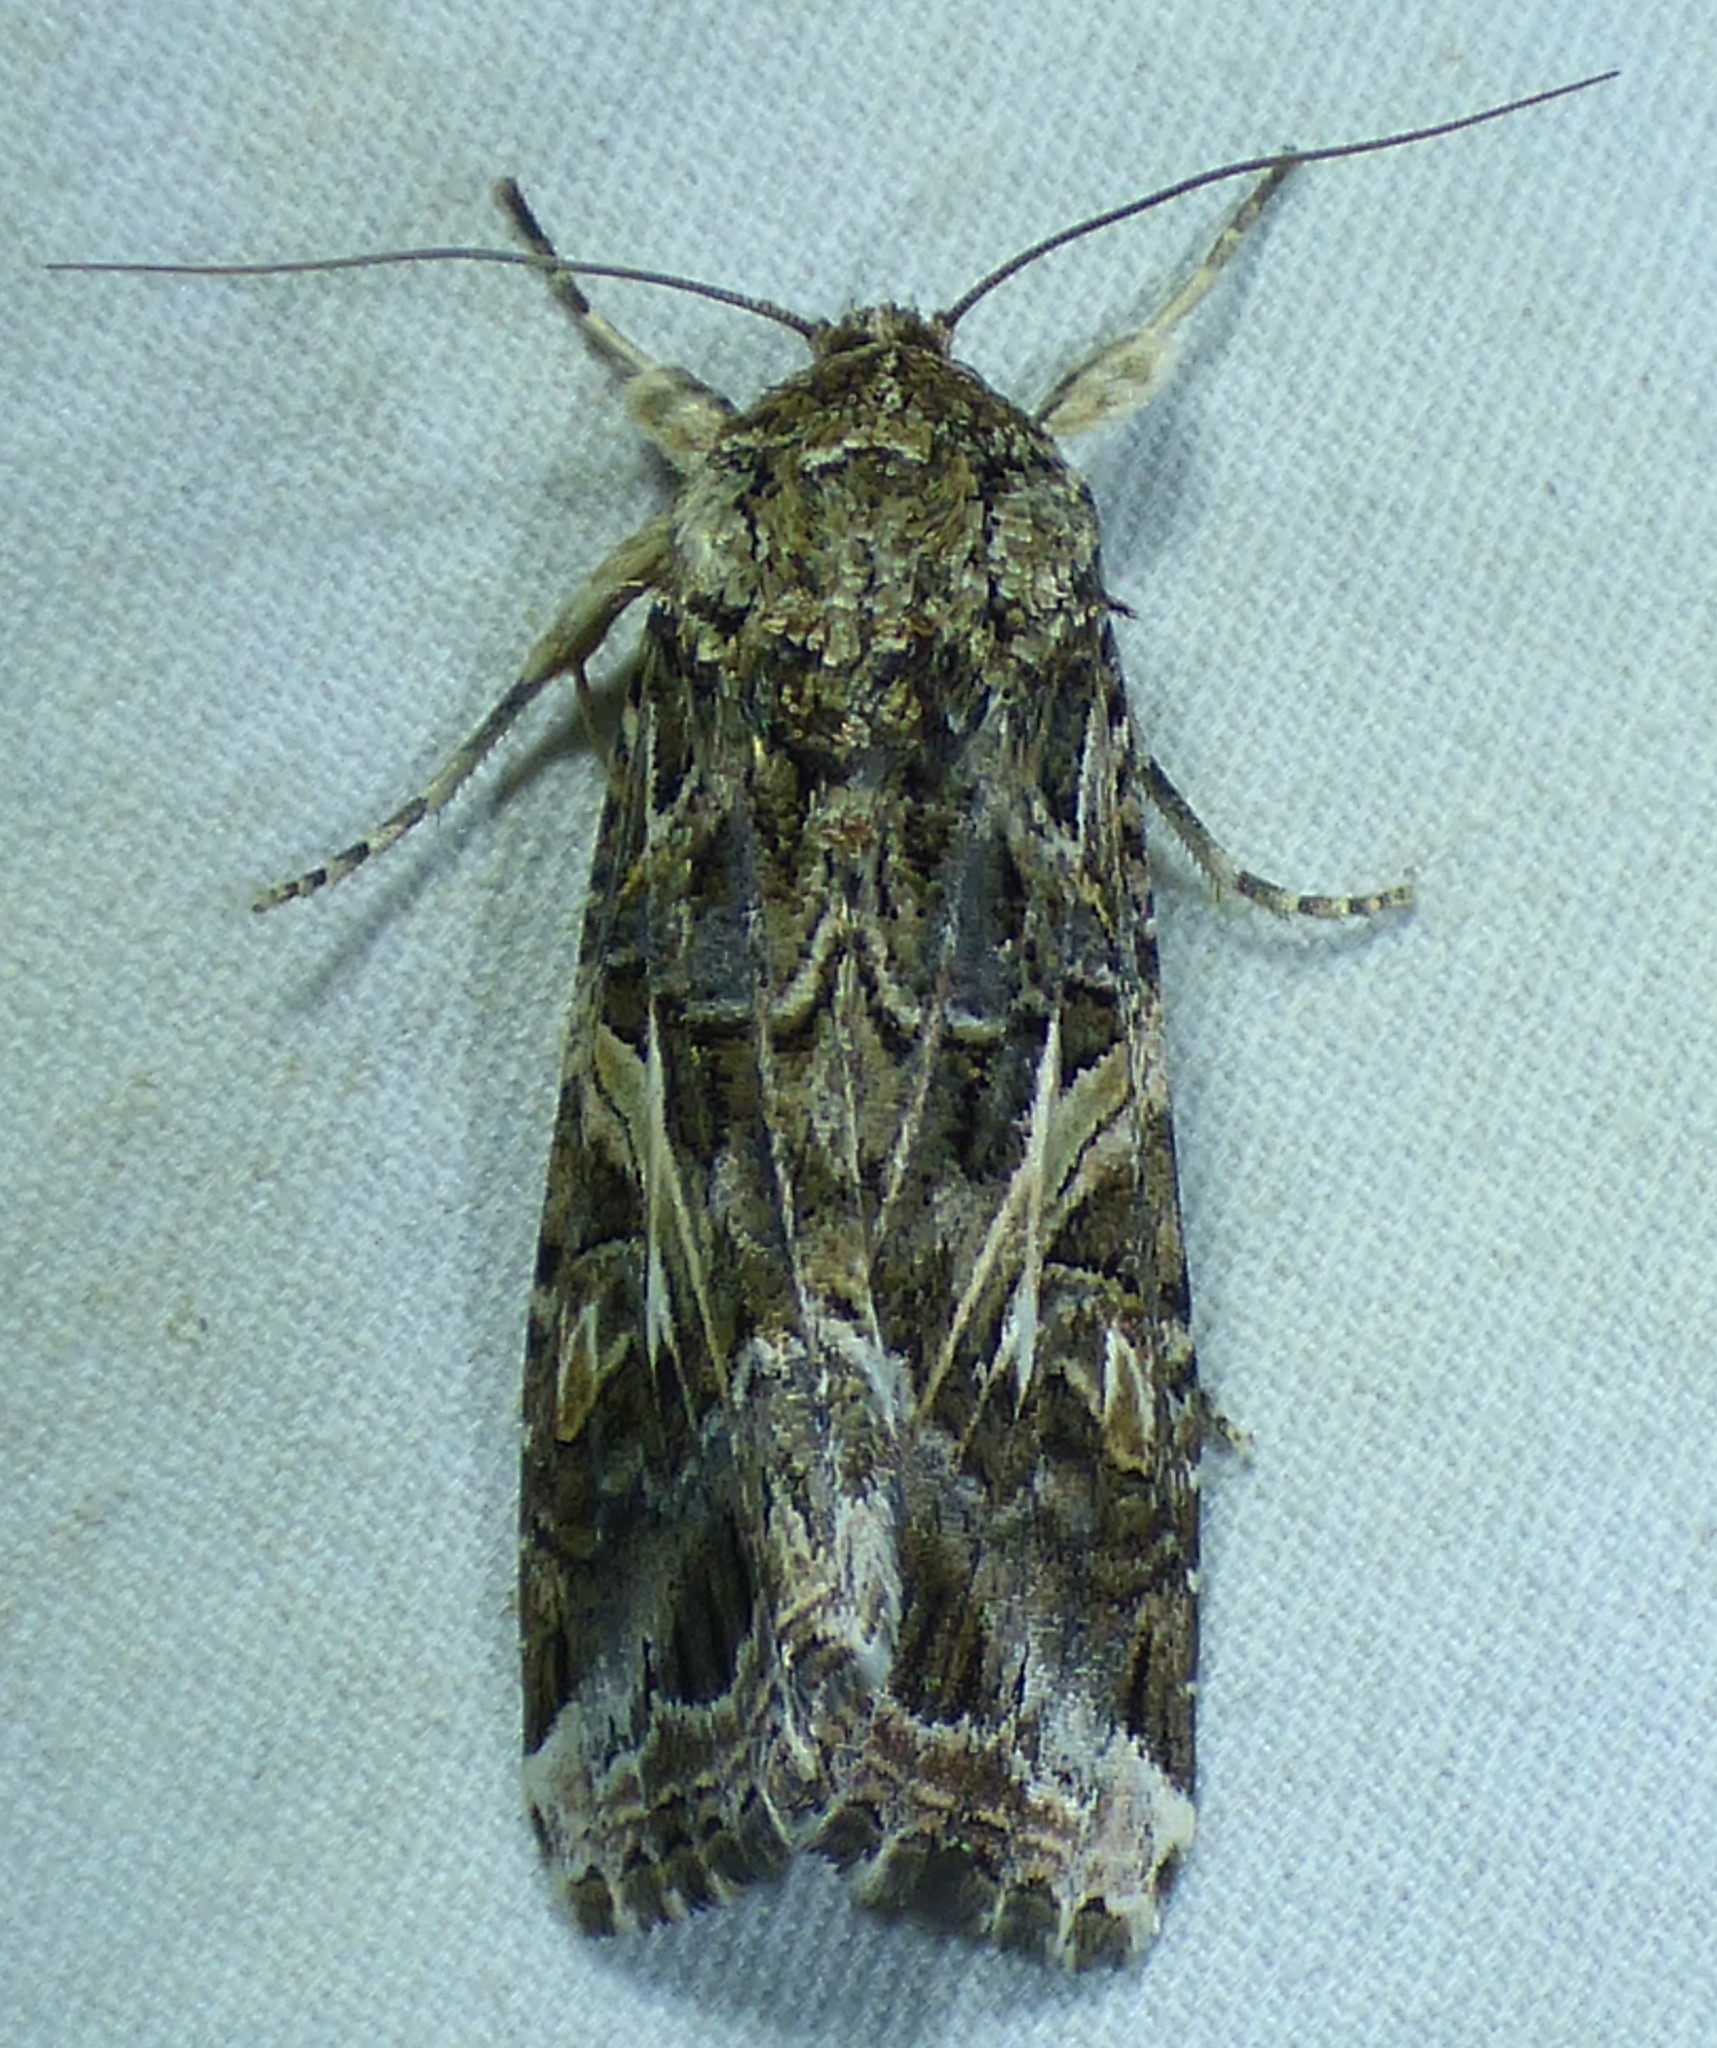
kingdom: Animalia
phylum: Arthropoda
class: Insecta
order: Lepidoptera
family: Noctuidae
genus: Spodoptera
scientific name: Spodoptera ornithogalli
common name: Yellow-striped armyworm
